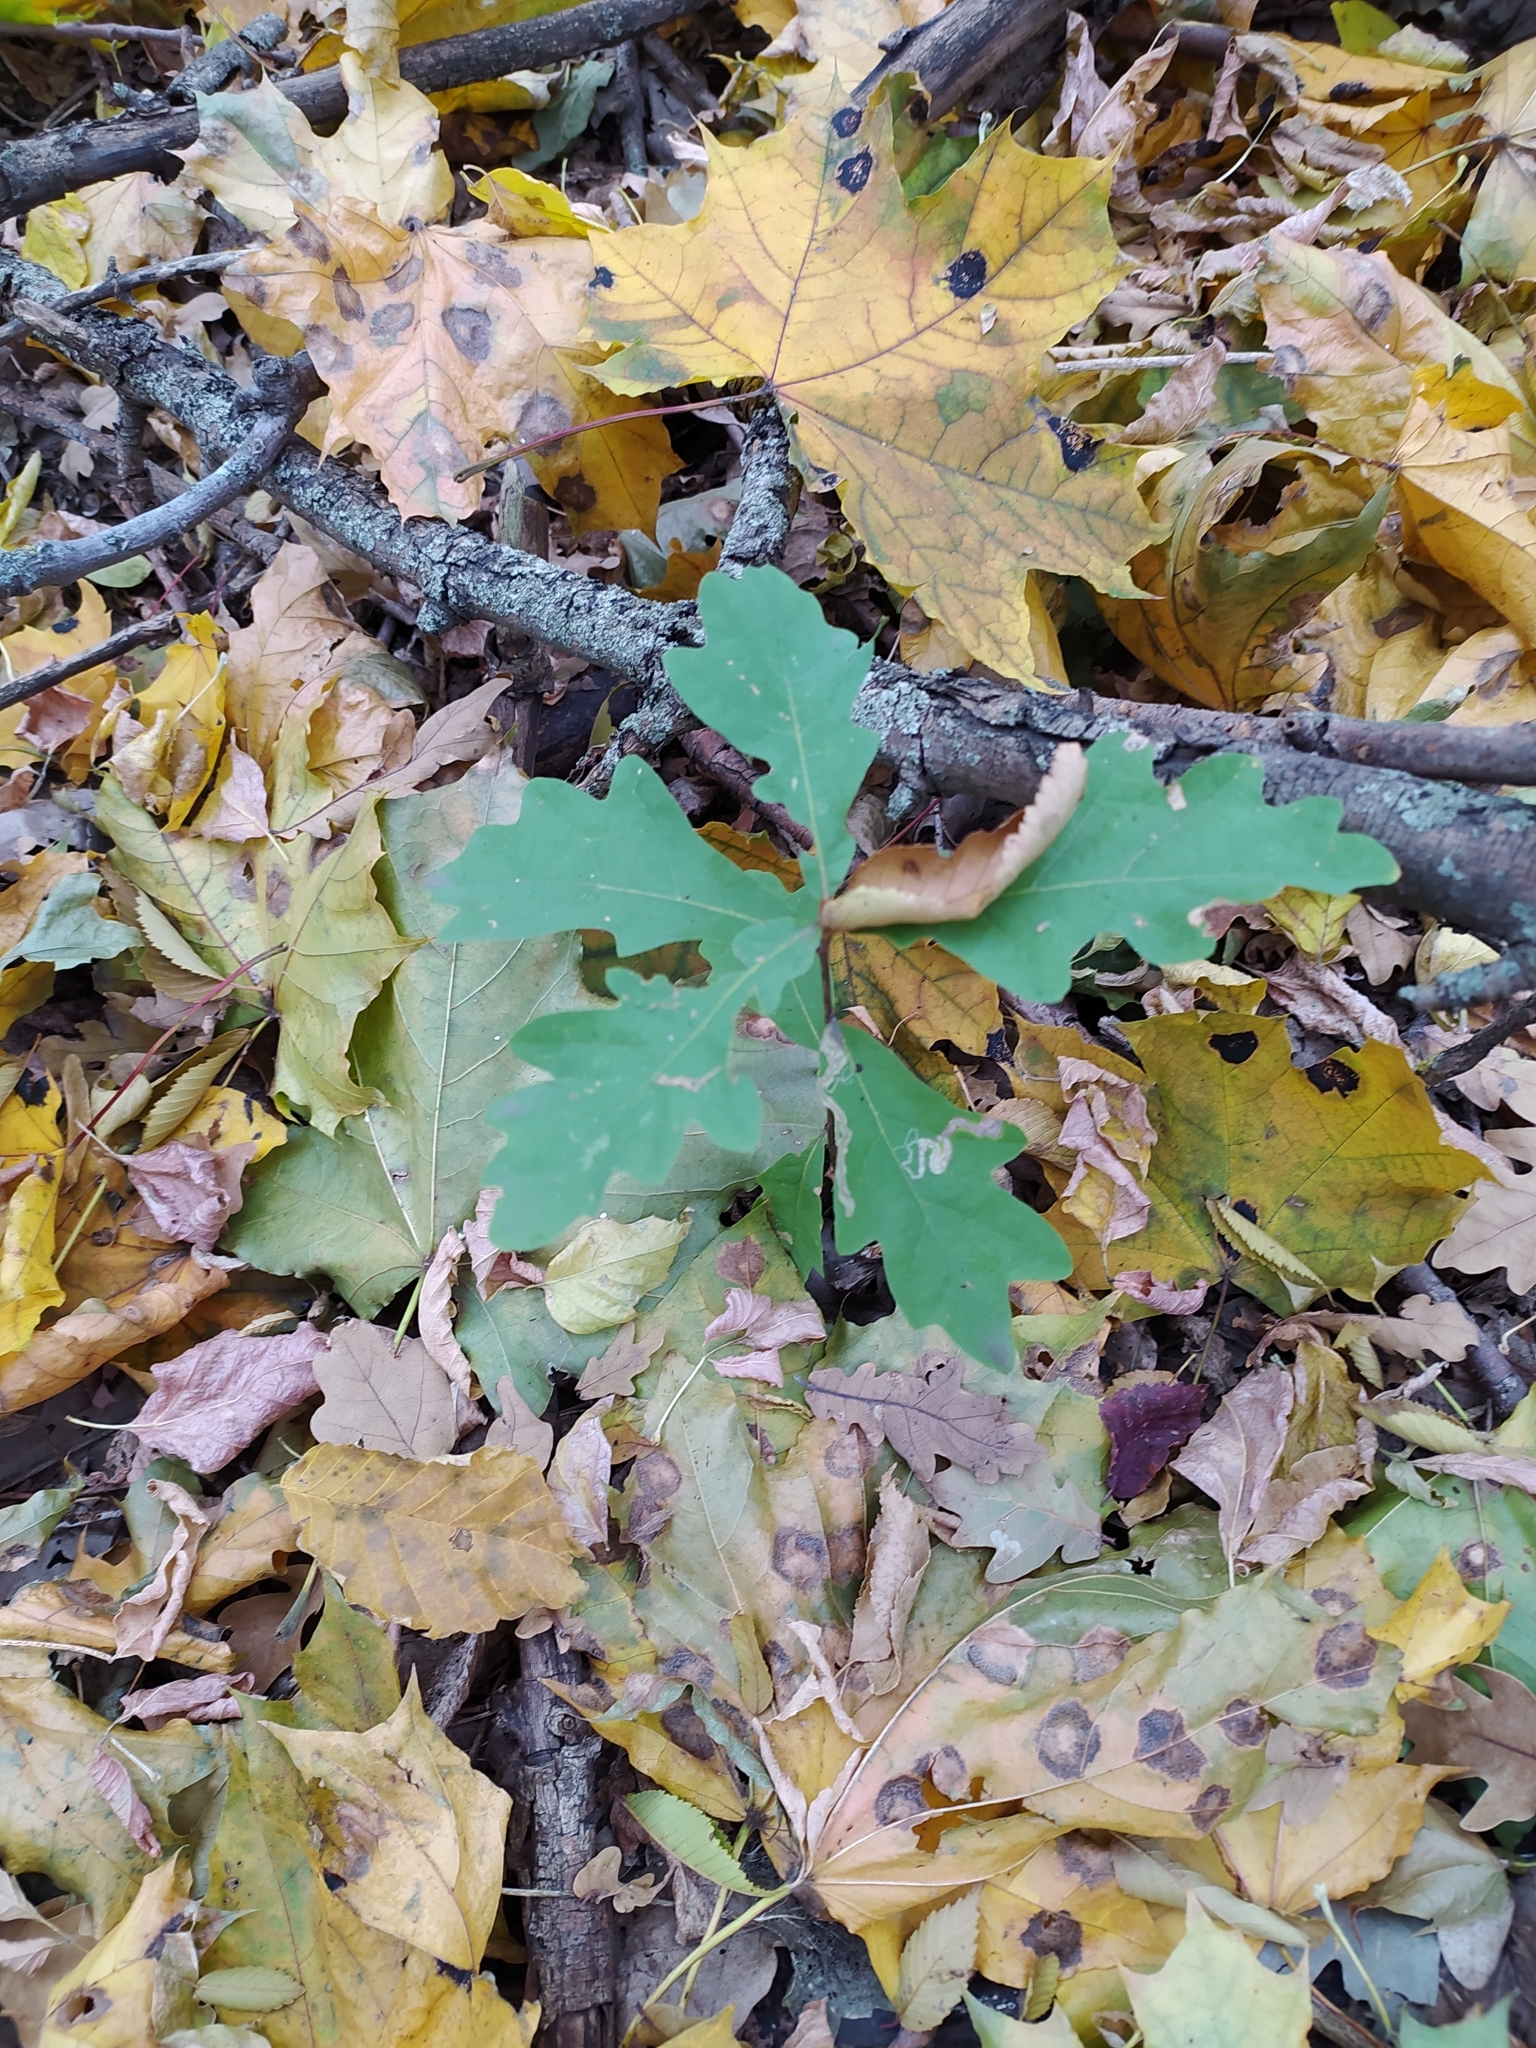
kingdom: Plantae
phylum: Tracheophyta
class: Magnoliopsida
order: Fagales
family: Fagaceae
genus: Quercus
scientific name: Quercus robur
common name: Pedunculate oak
